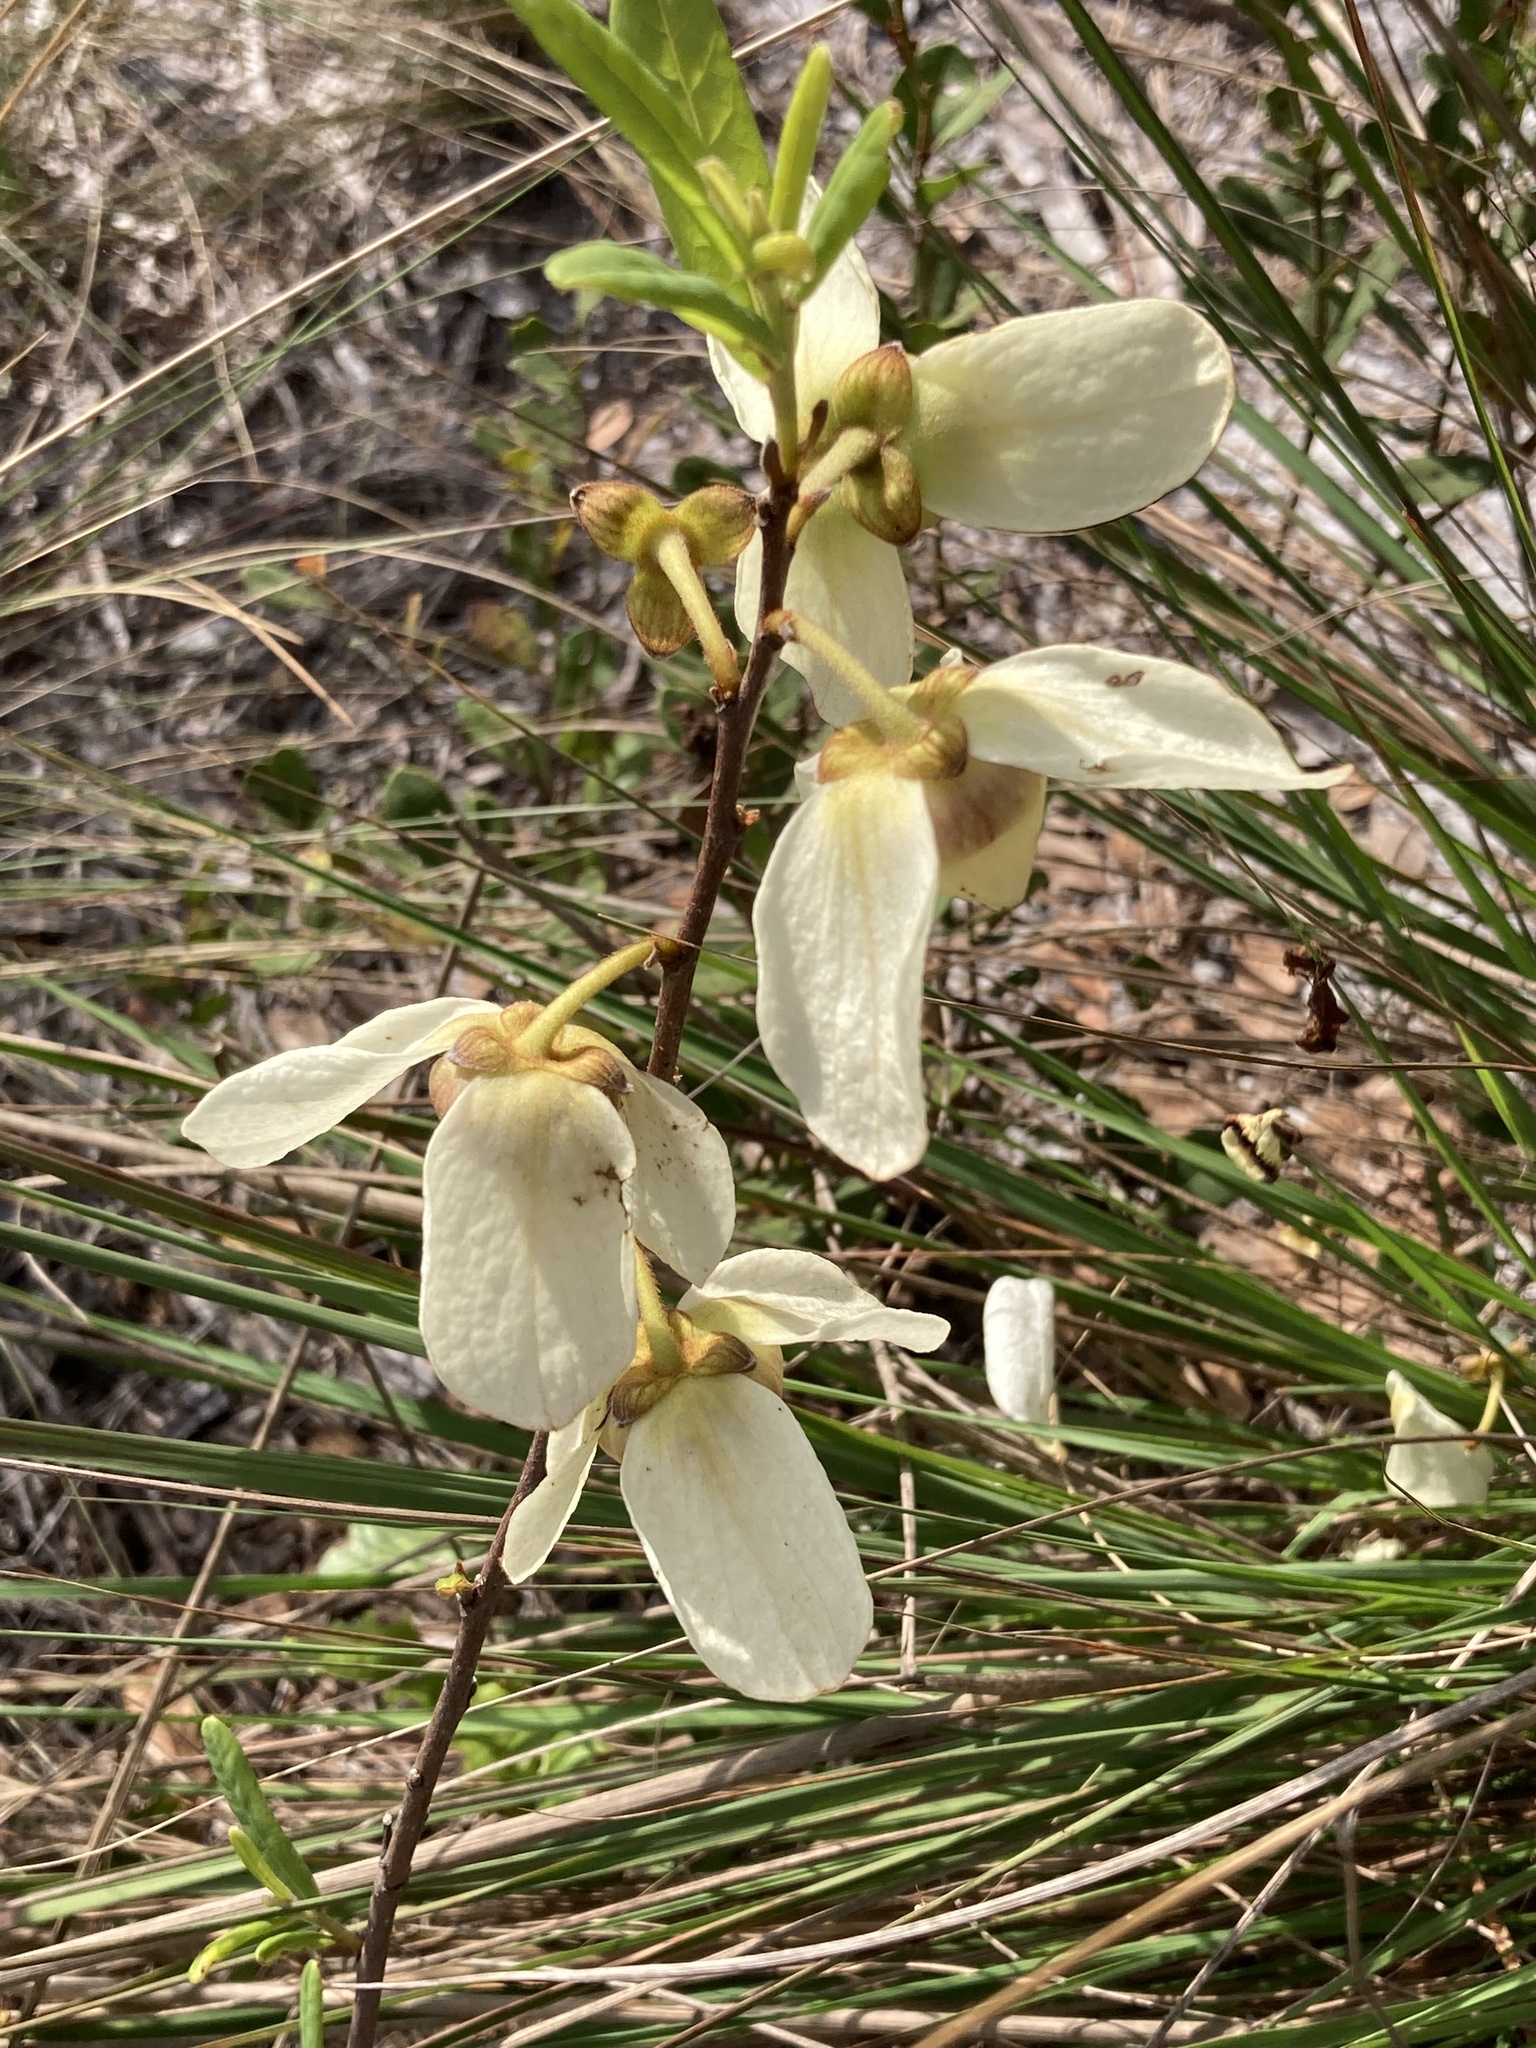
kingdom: Plantae
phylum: Tracheophyta
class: Magnoliopsida
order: Magnoliales
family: Annonaceae
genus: Asimina
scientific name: Asimina reticulata
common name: Flag pawpaw
